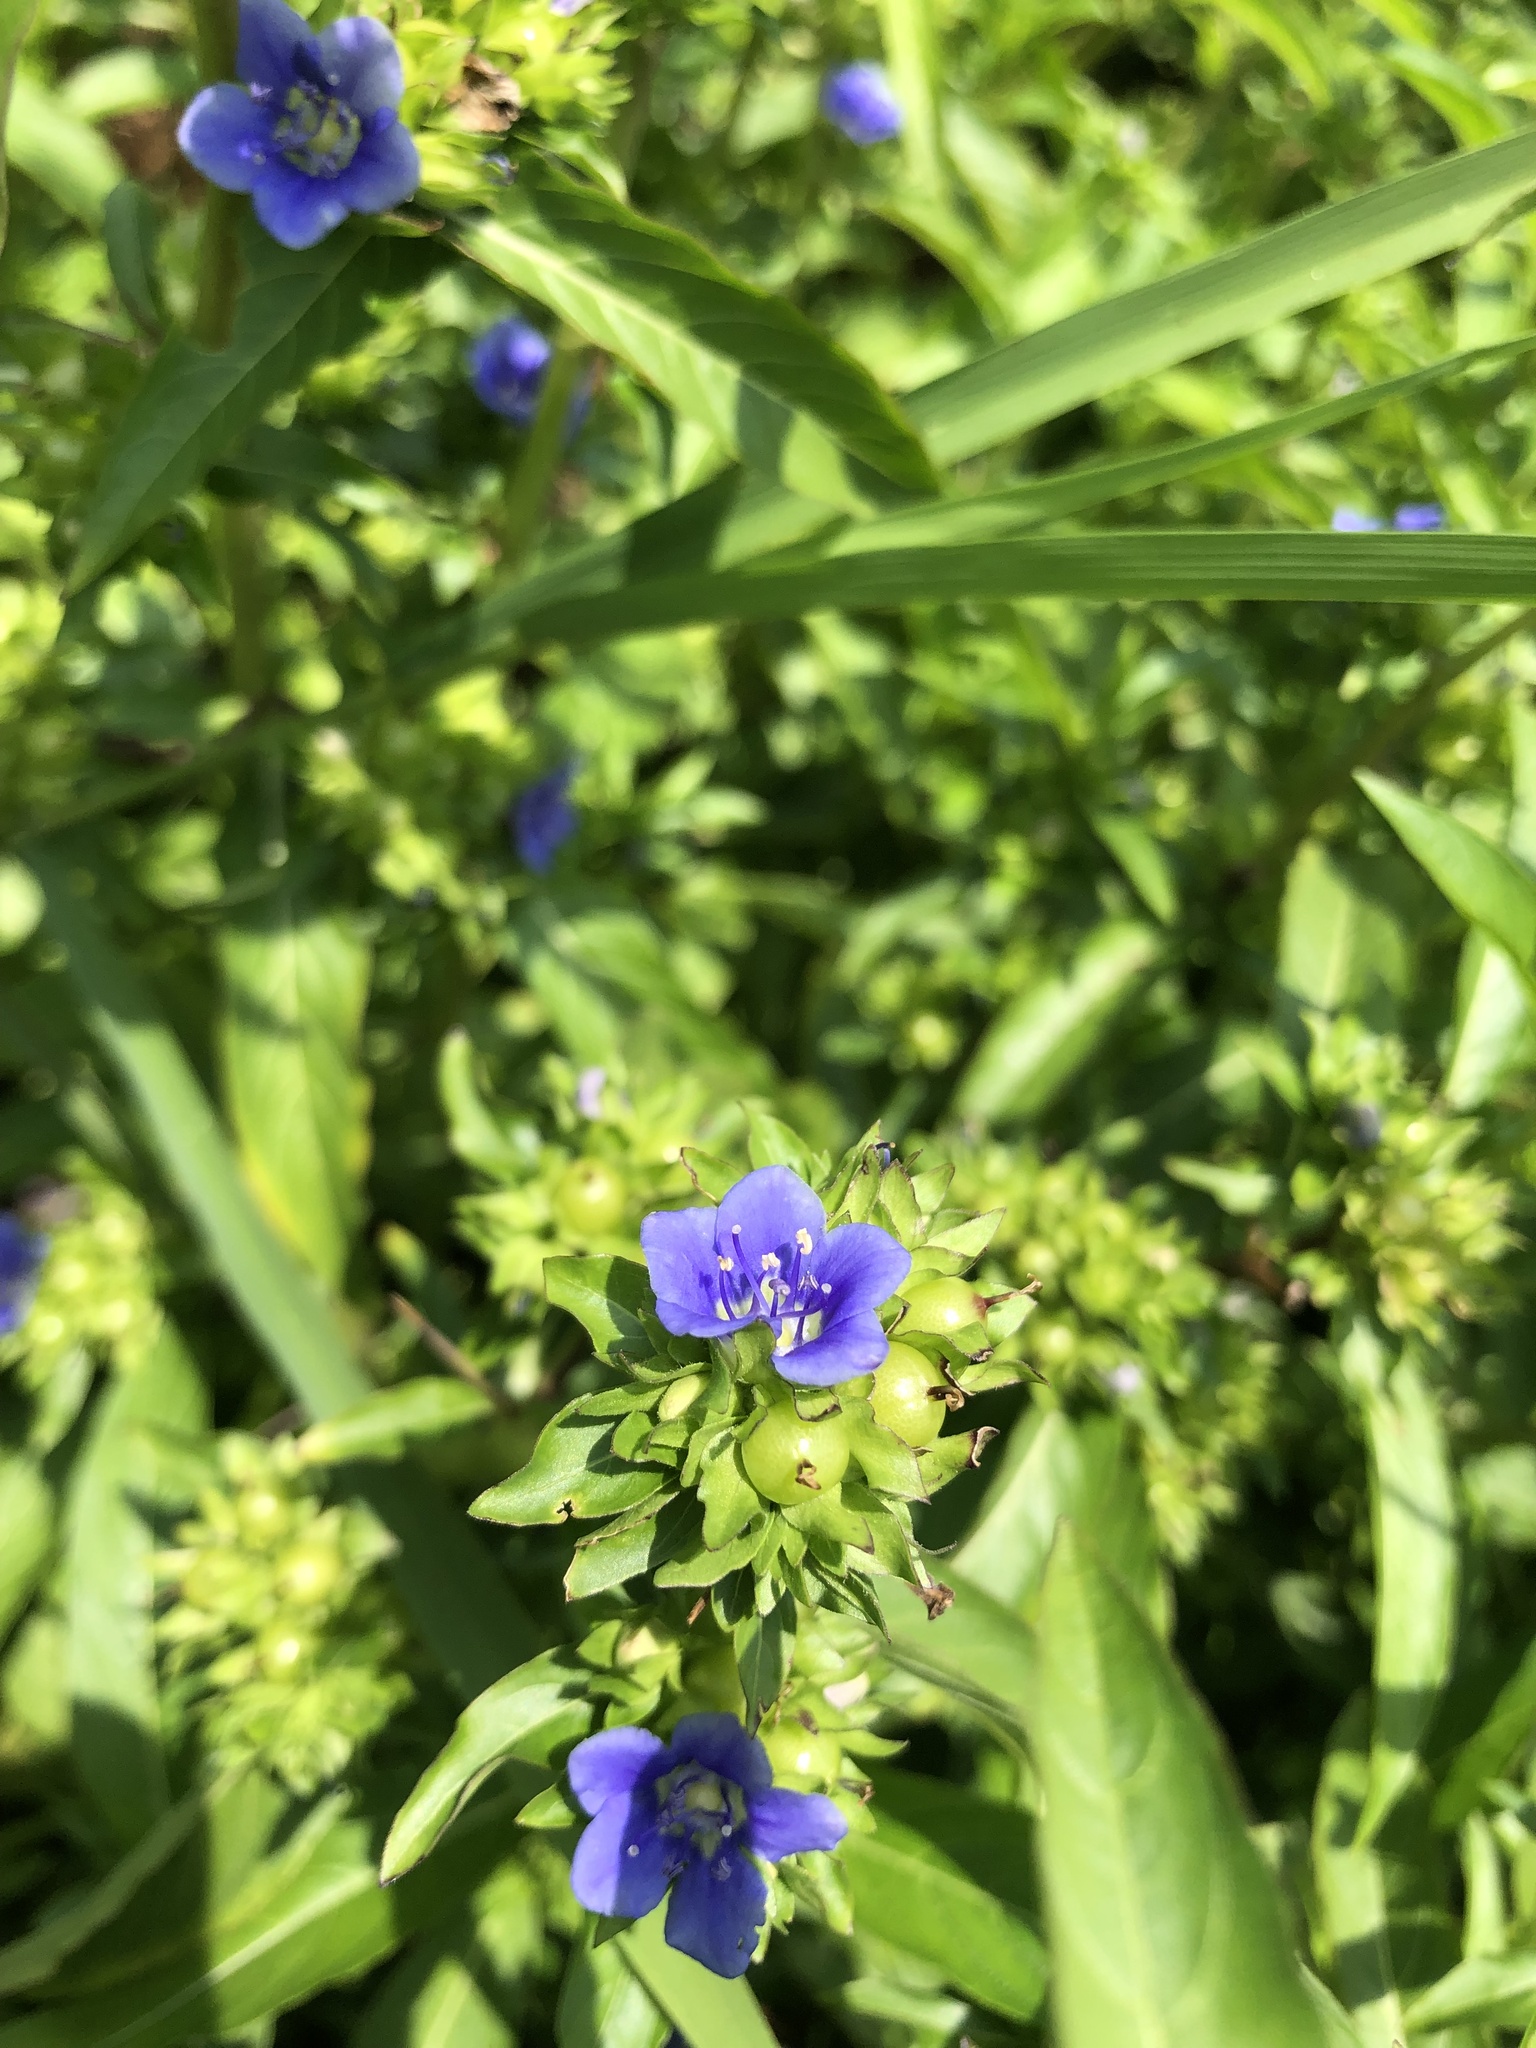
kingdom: Plantae
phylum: Tracheophyta
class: Magnoliopsida
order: Solanales
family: Hydroleaceae
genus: Hydrolea
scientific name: Hydrolea uniflora
